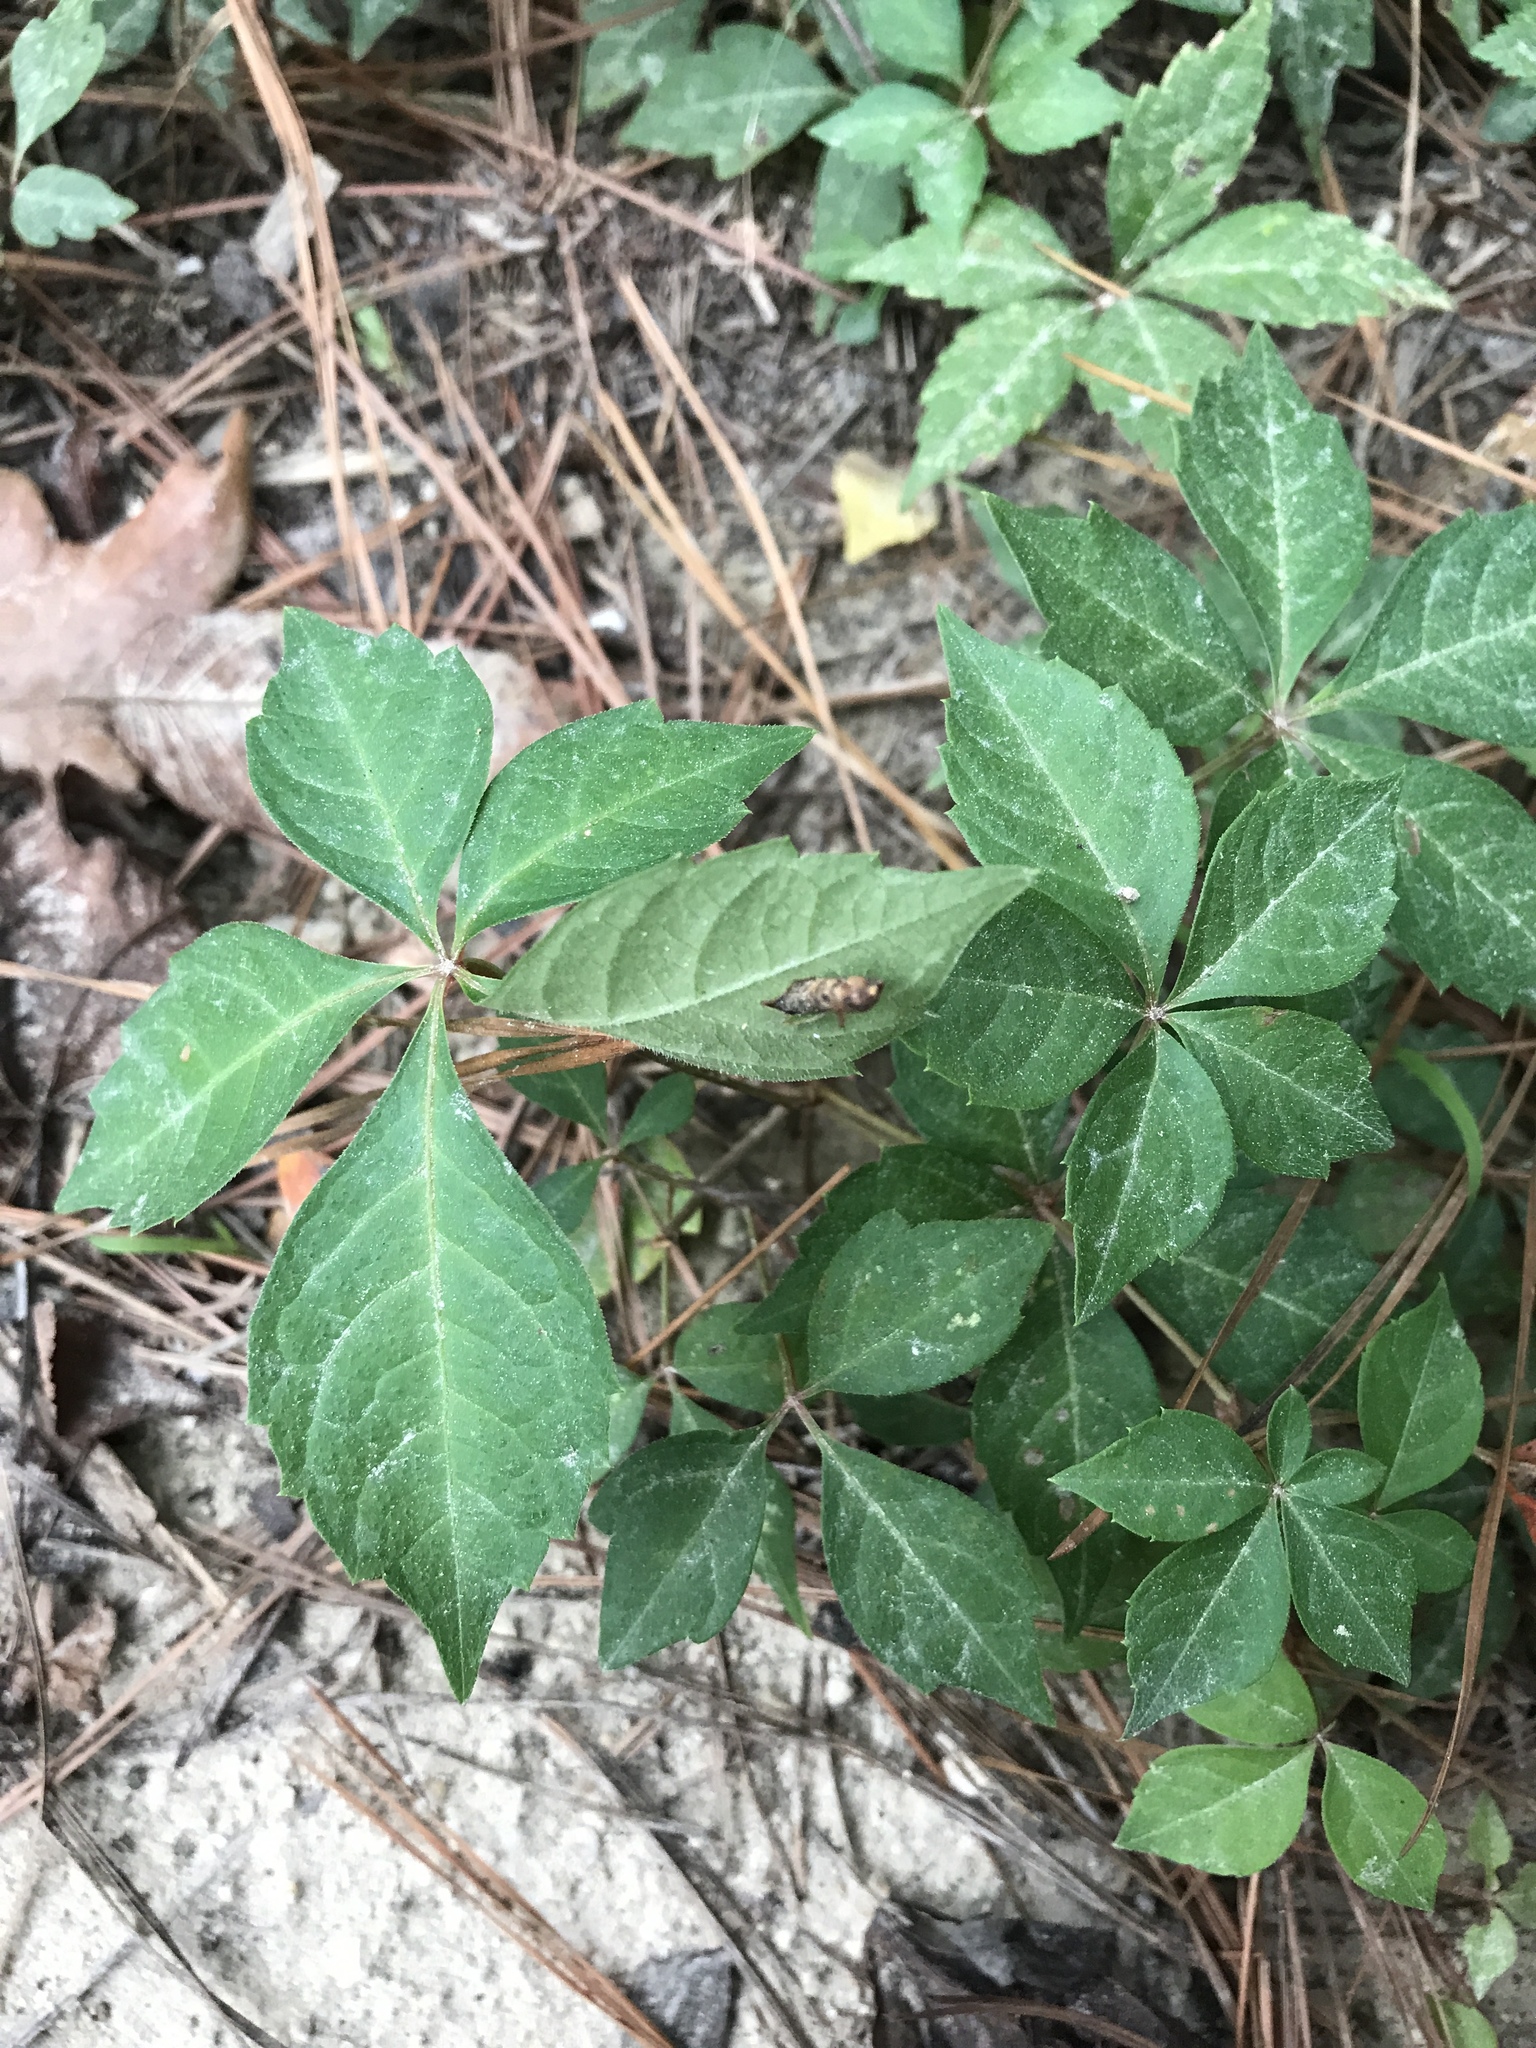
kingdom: Plantae
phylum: Tracheophyta
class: Magnoliopsida
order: Vitales
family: Vitaceae
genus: Parthenocissus
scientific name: Parthenocissus quinquefolia
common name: Virginia-creeper
